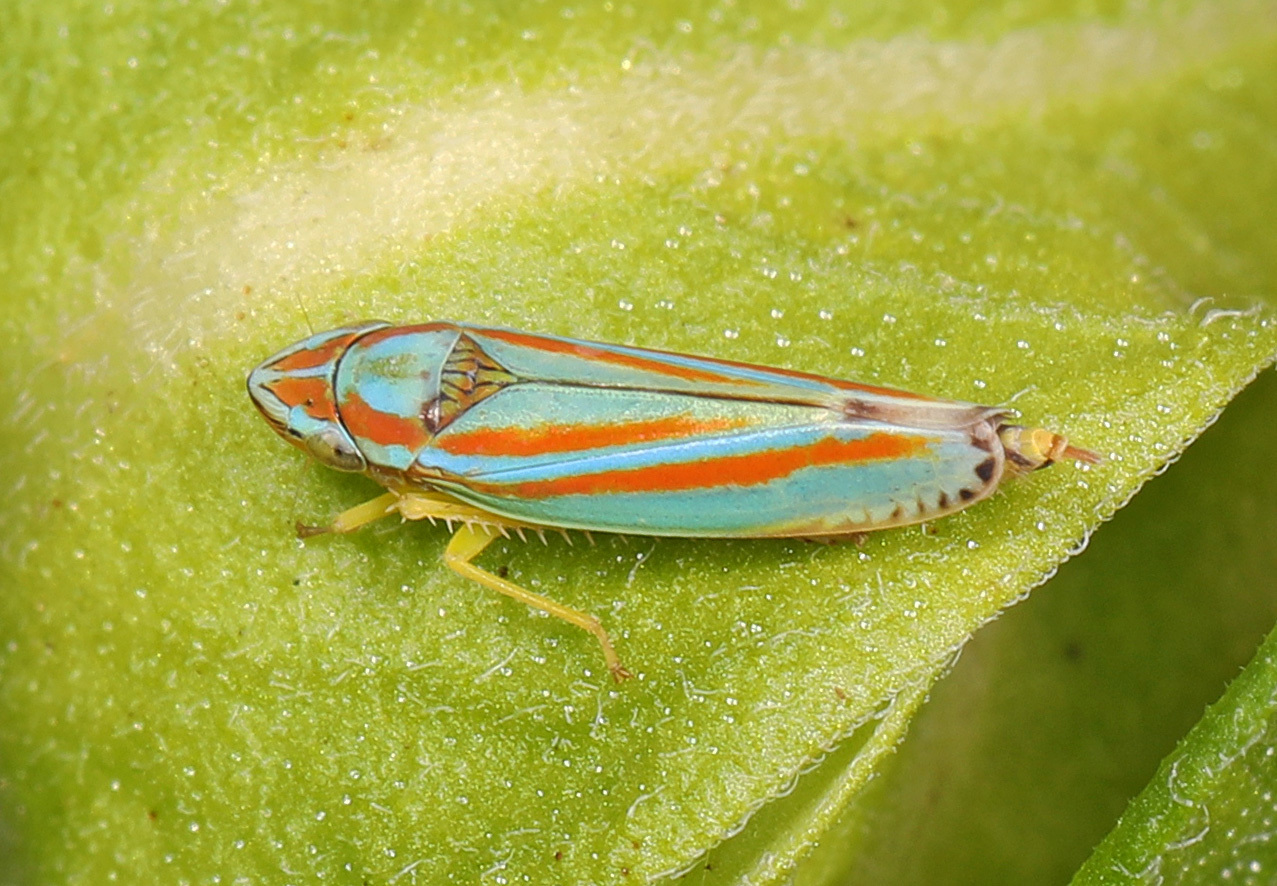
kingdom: Animalia
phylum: Arthropoda
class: Insecta
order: Hemiptera
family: Cicadellidae
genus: Graphocephala
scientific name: Graphocephala versuta
